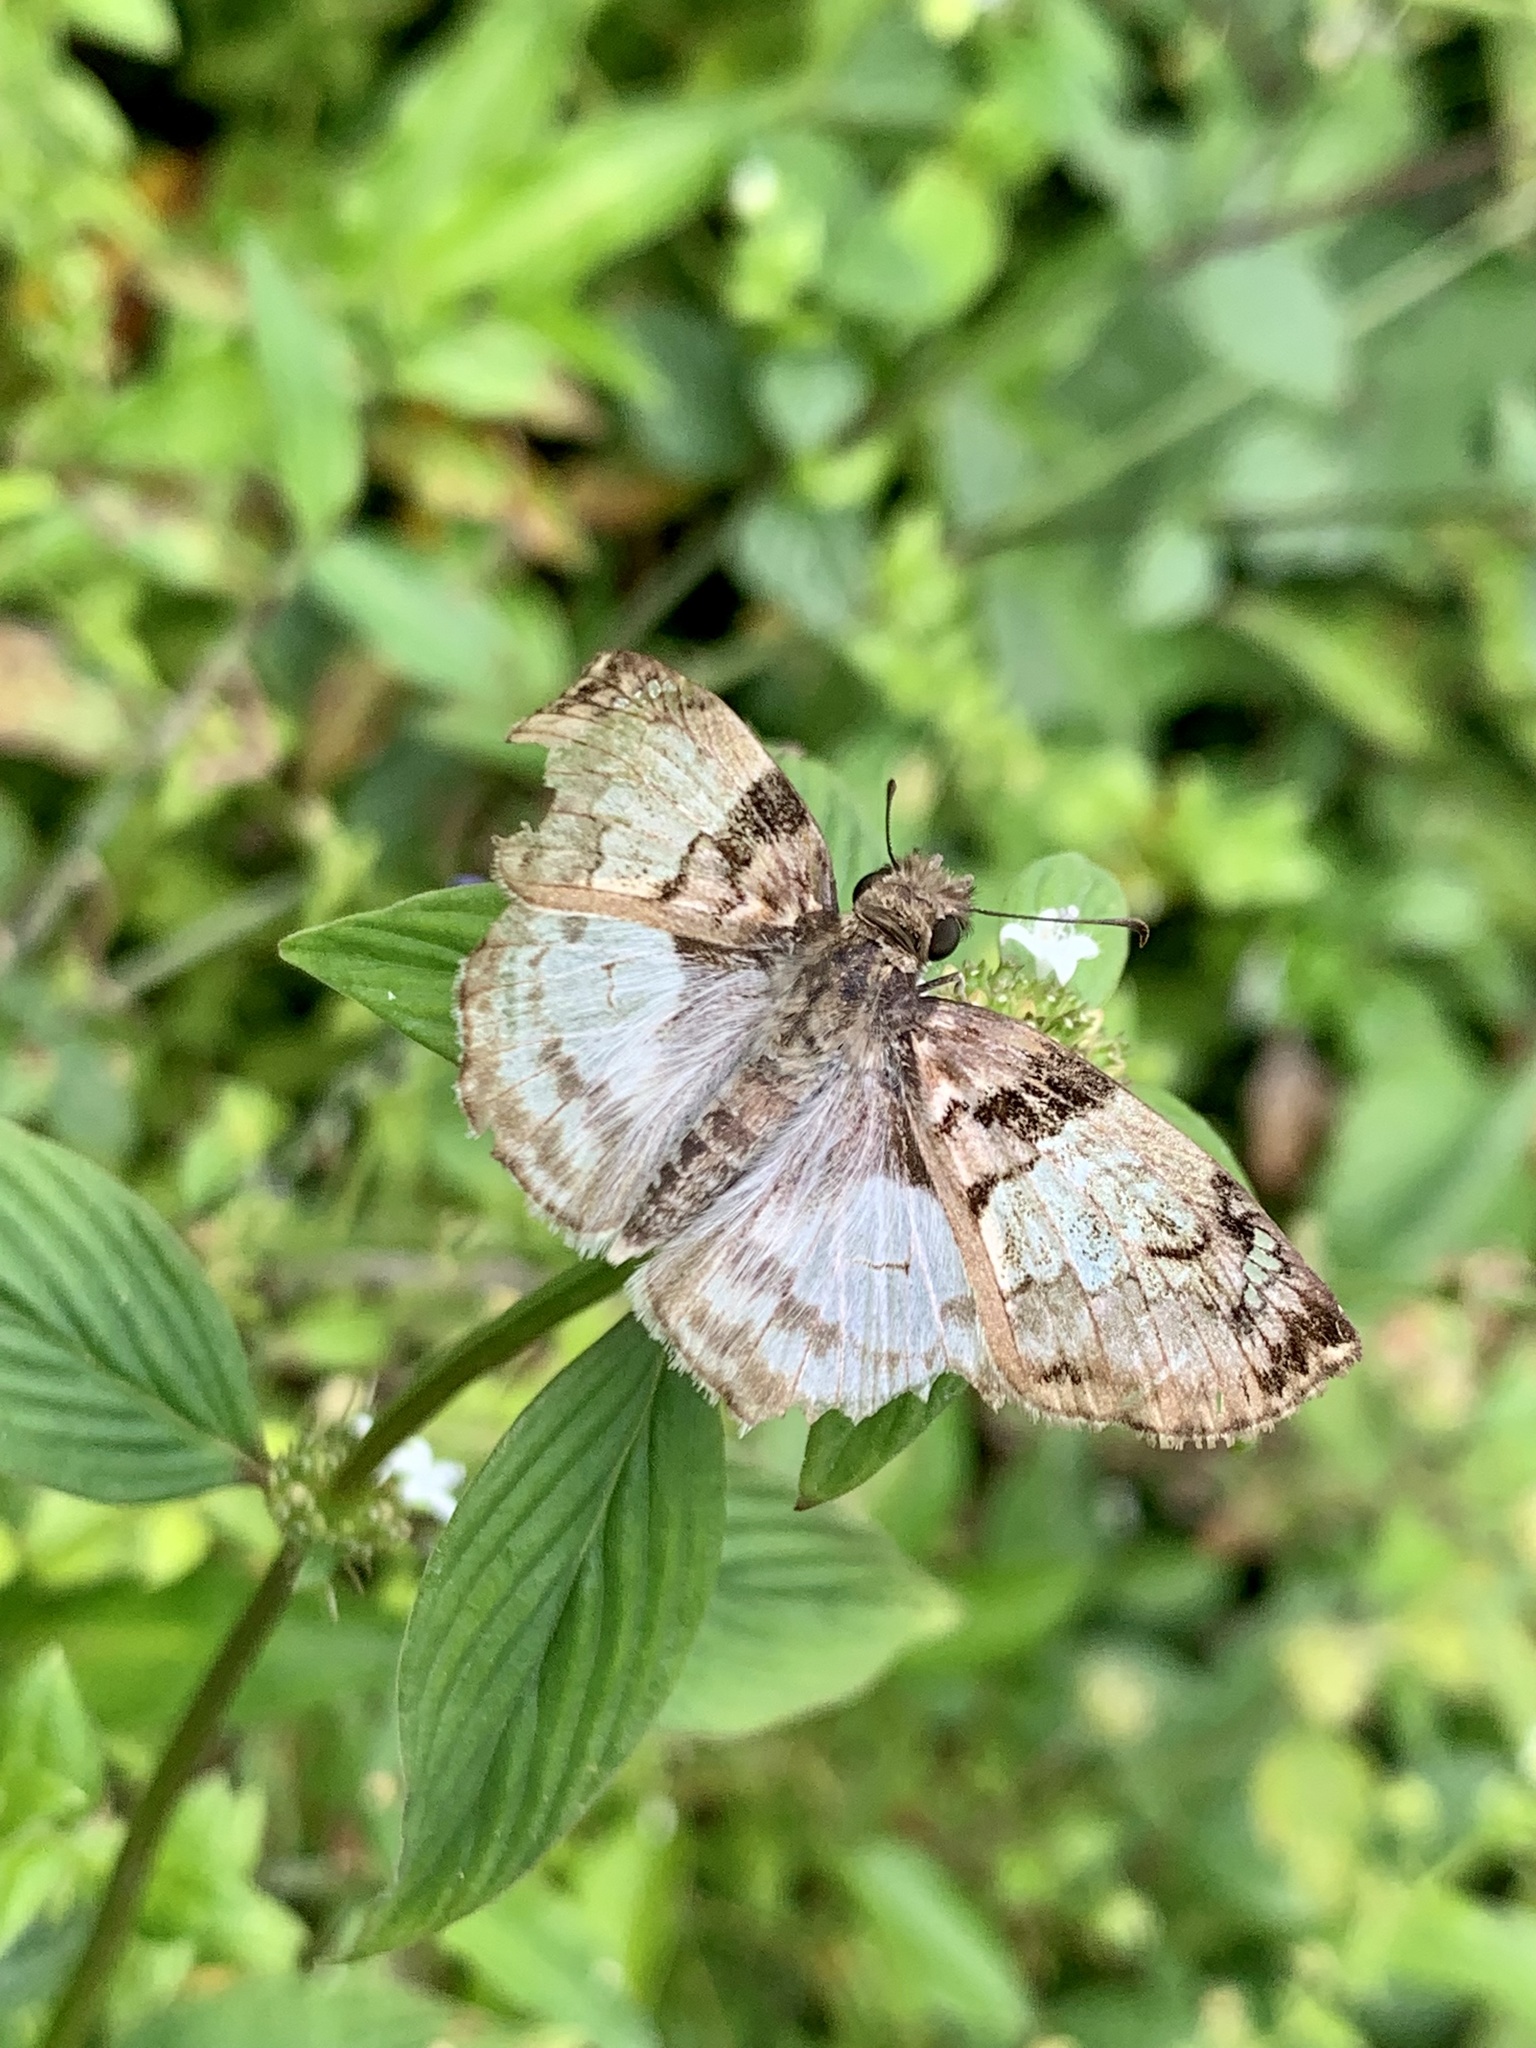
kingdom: Animalia
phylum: Arthropoda
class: Insecta
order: Lepidoptera
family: Hesperiidae
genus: Mylon
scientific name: Mylon lassia
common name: Bold mylon
